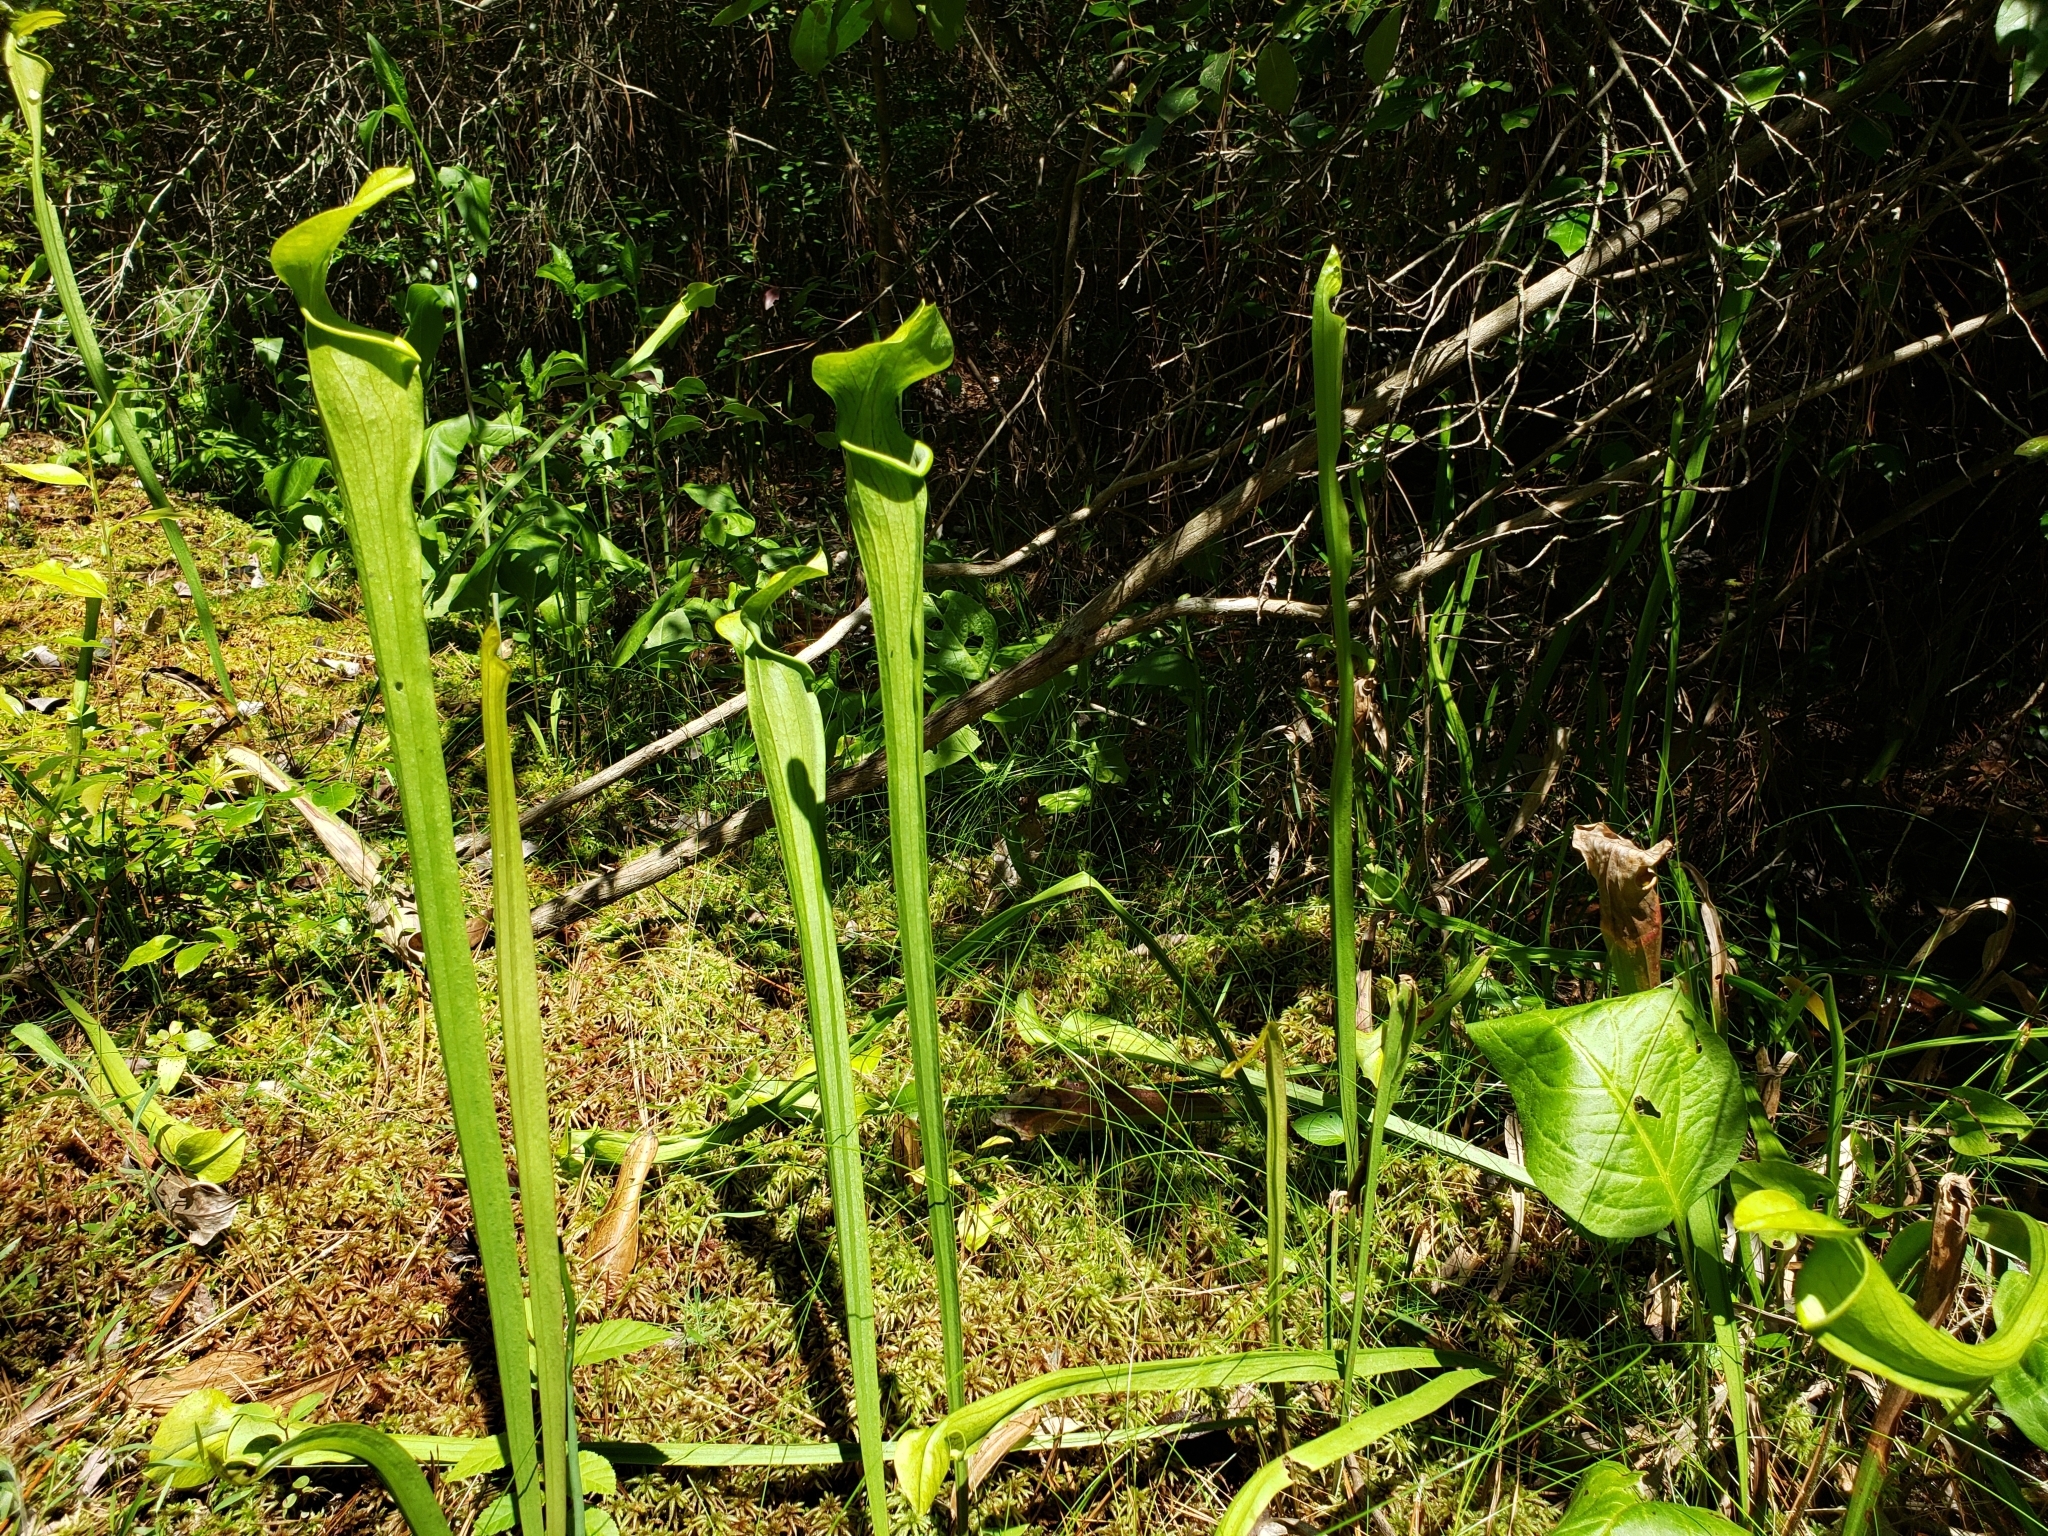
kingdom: Plantae
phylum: Tracheophyta
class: Magnoliopsida
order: Ericales
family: Sarraceniaceae
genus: Sarracenia
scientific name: Sarracenia alata
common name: Yellow trumpets
